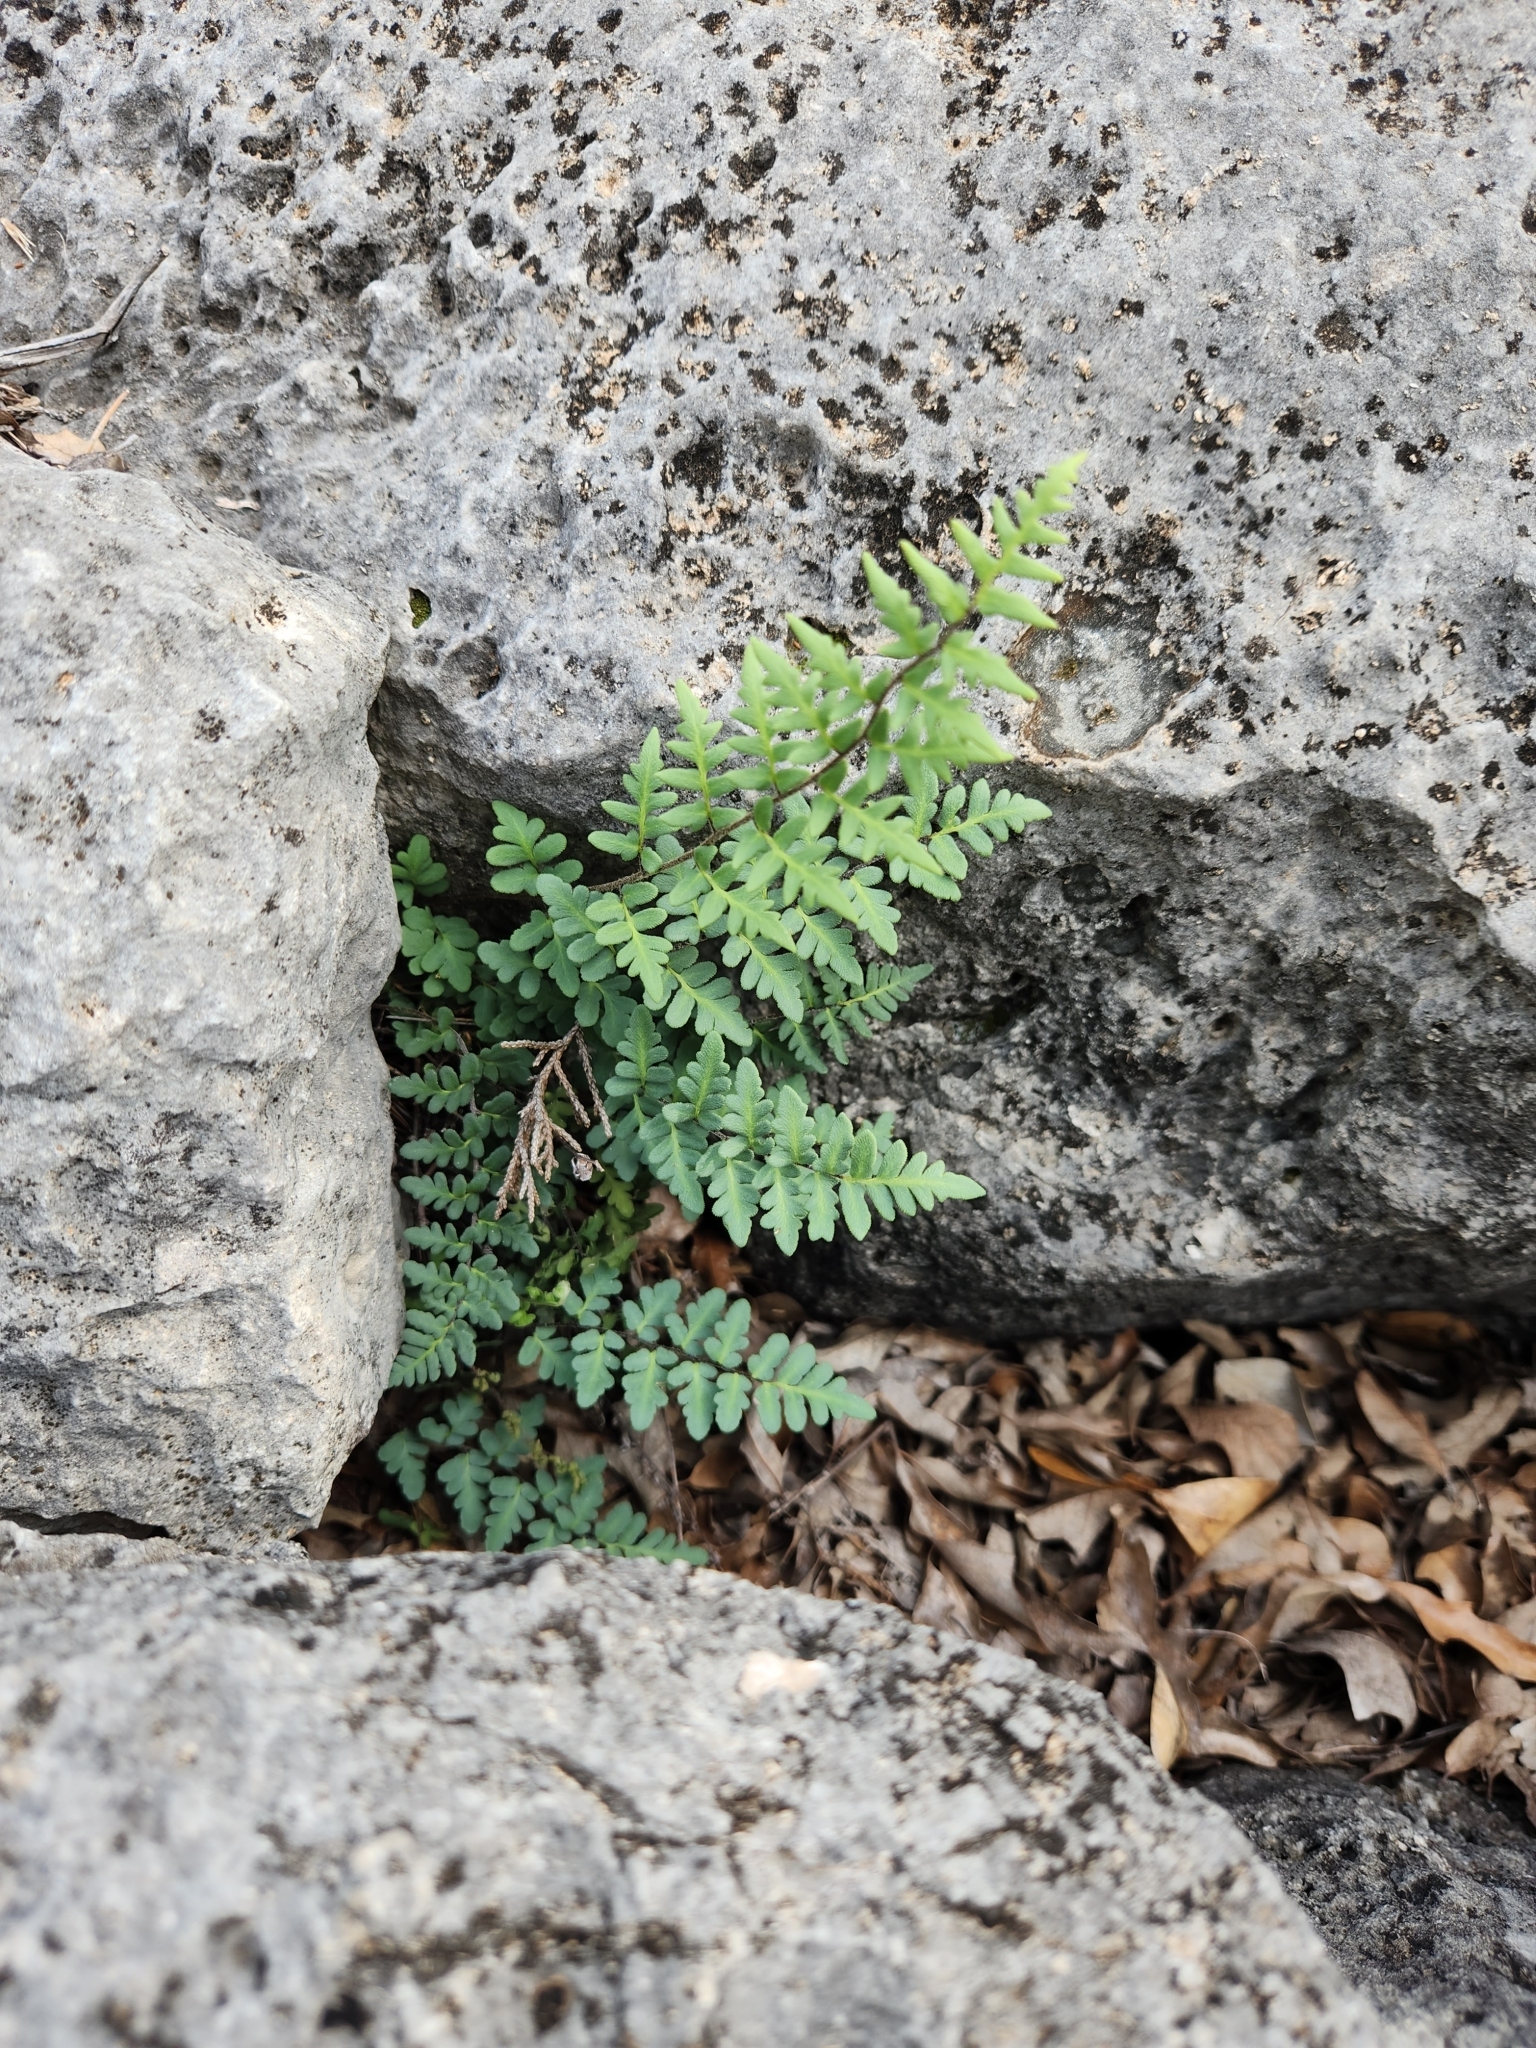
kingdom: Plantae
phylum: Tracheophyta
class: Polypodiopsida
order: Polypodiales
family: Pteridaceae
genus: Myriopteris
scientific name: Myriopteris scabra
